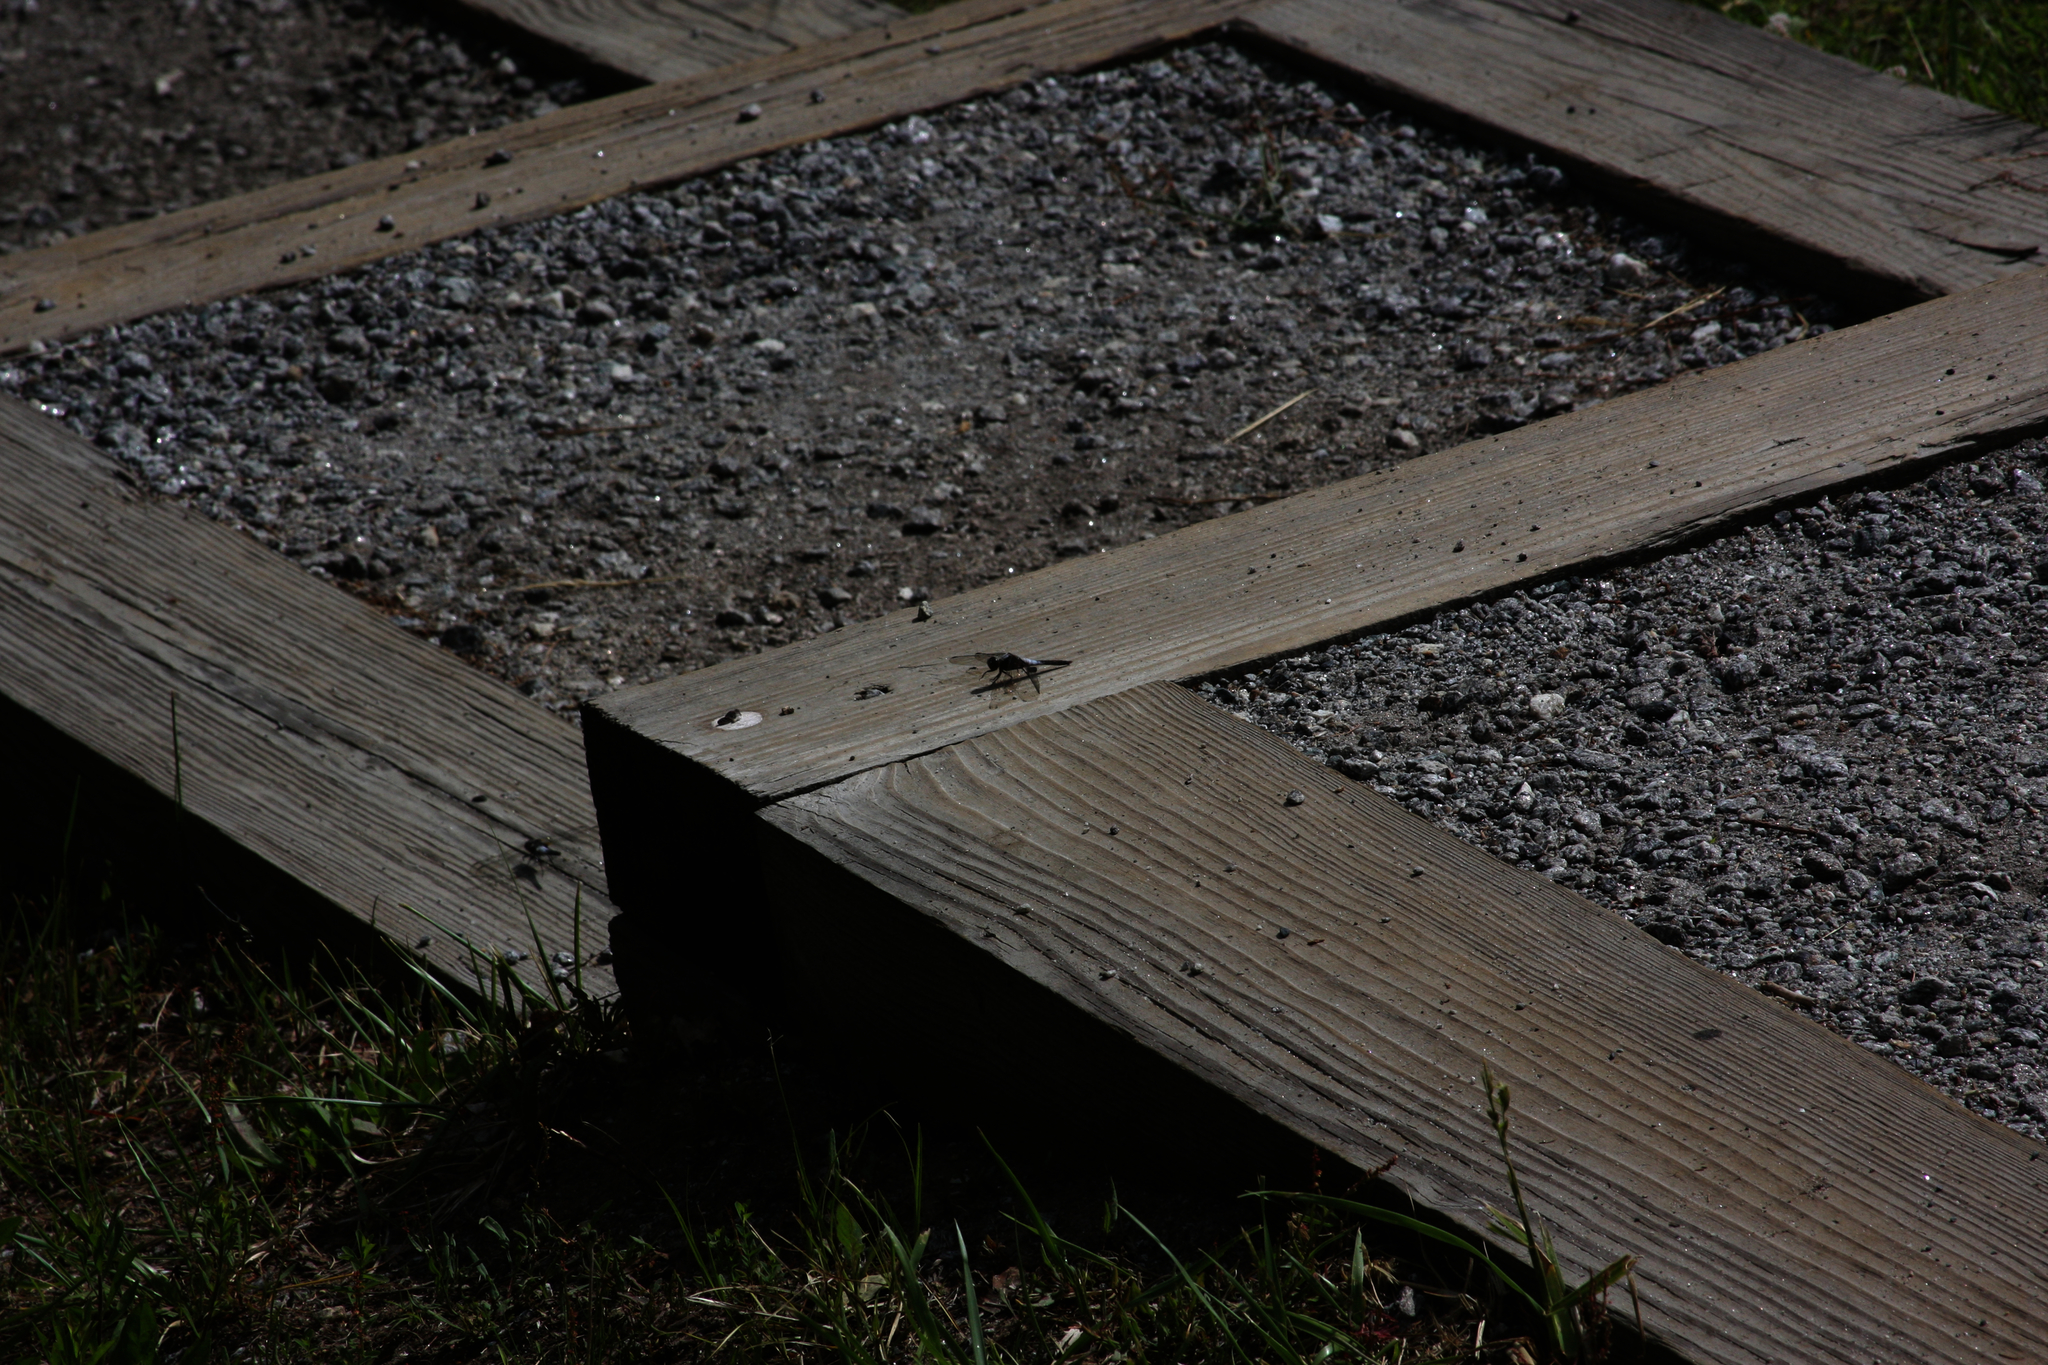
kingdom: Animalia
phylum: Arthropoda
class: Insecta
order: Odonata
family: Libellulidae
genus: Ladona
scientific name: Ladona julia
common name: Chalk-fronted corporal
